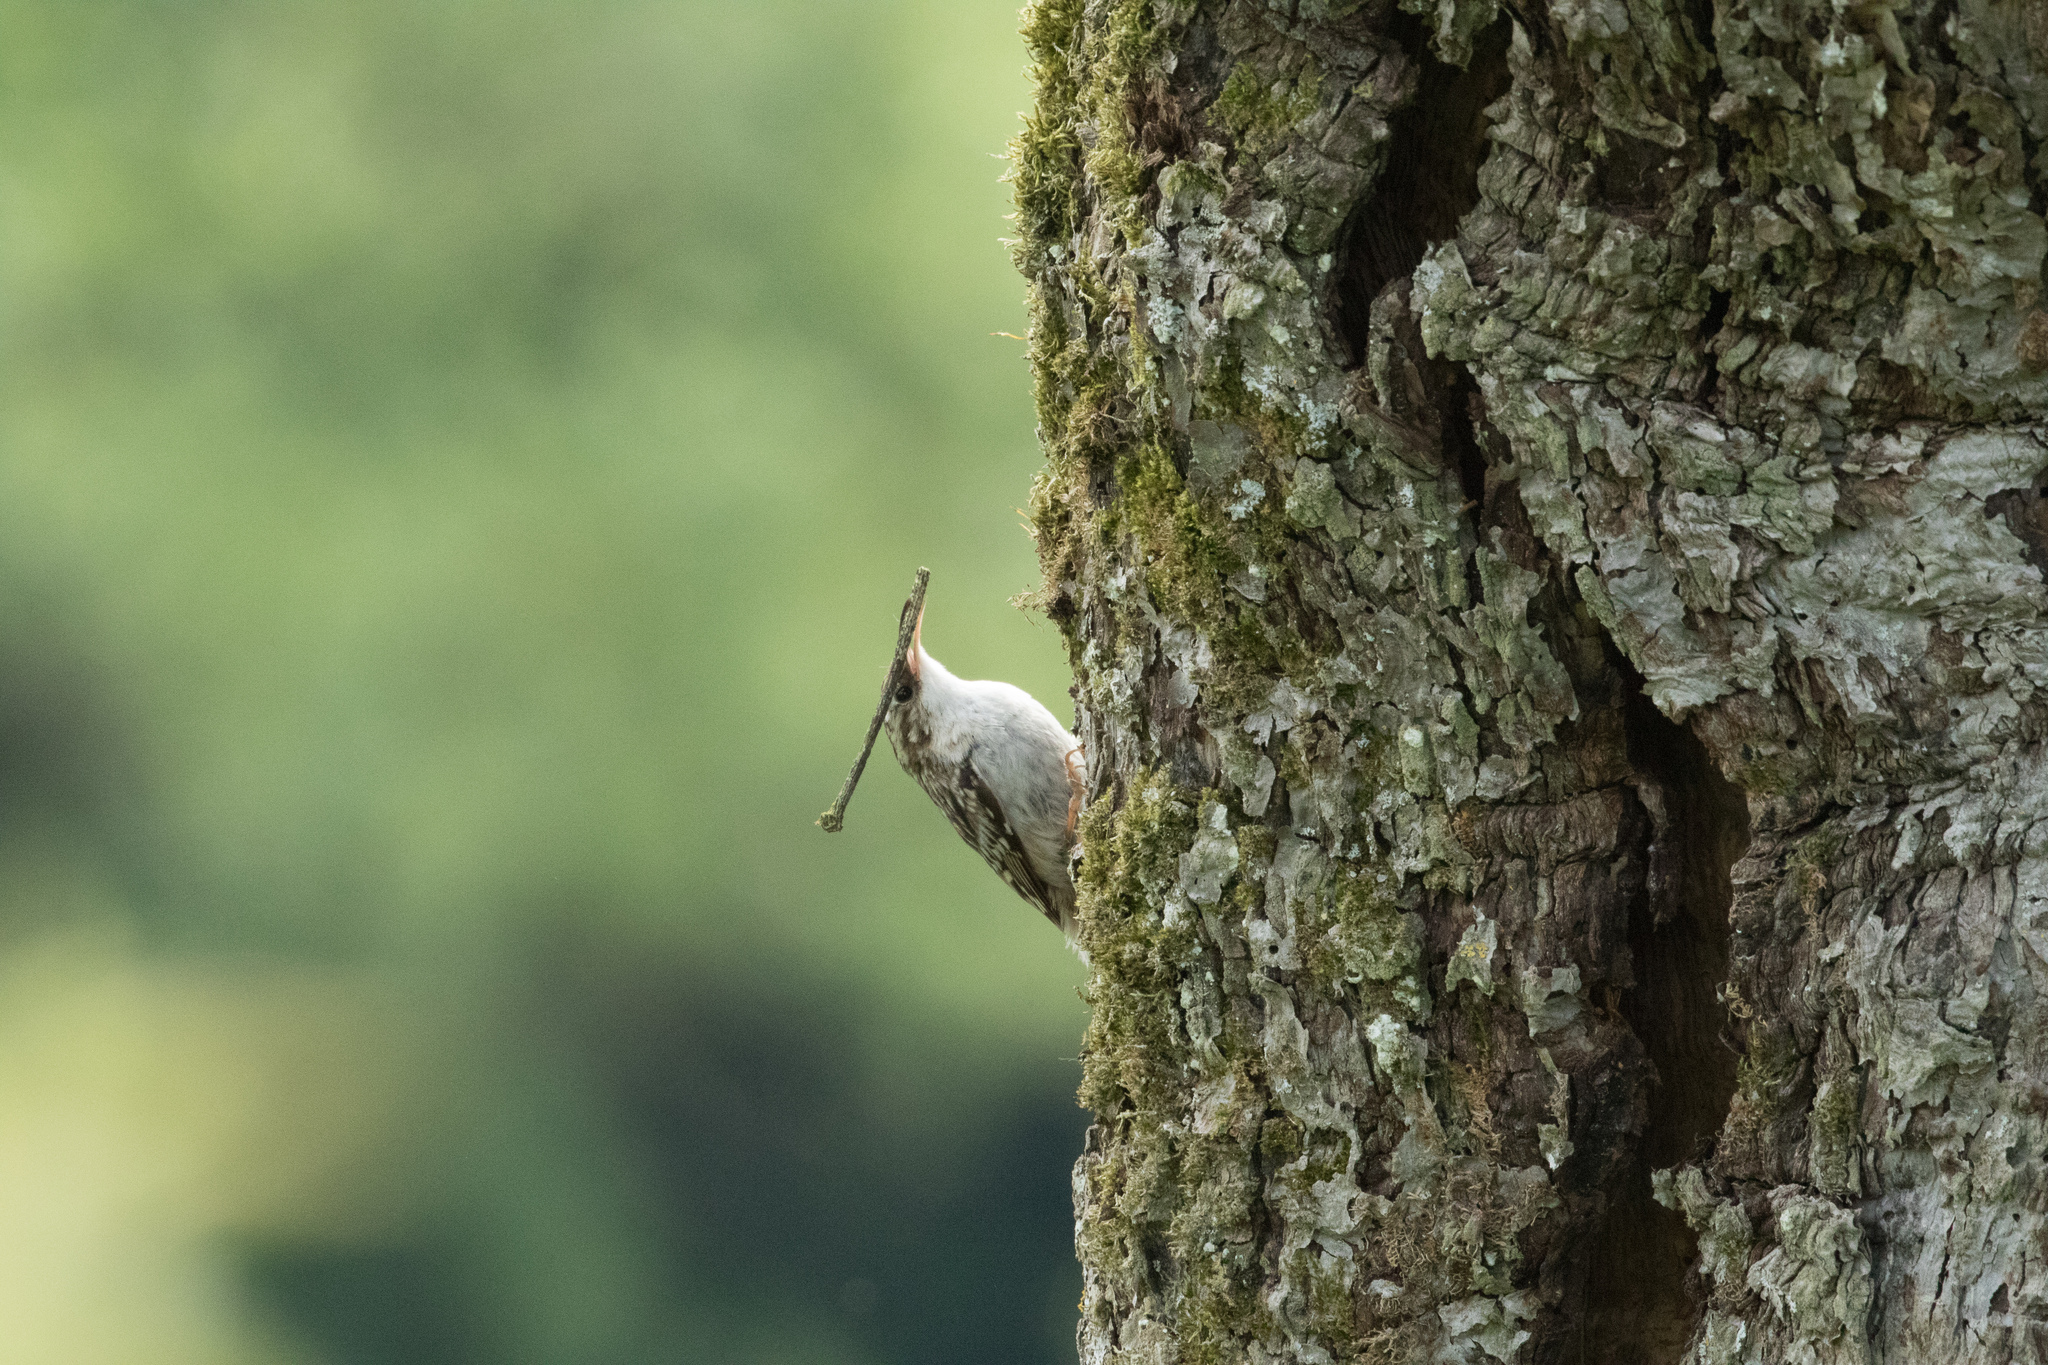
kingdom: Animalia
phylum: Chordata
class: Aves
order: Passeriformes
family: Certhiidae
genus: Certhia
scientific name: Certhia brachydactyla
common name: Short-toed treecreeper
